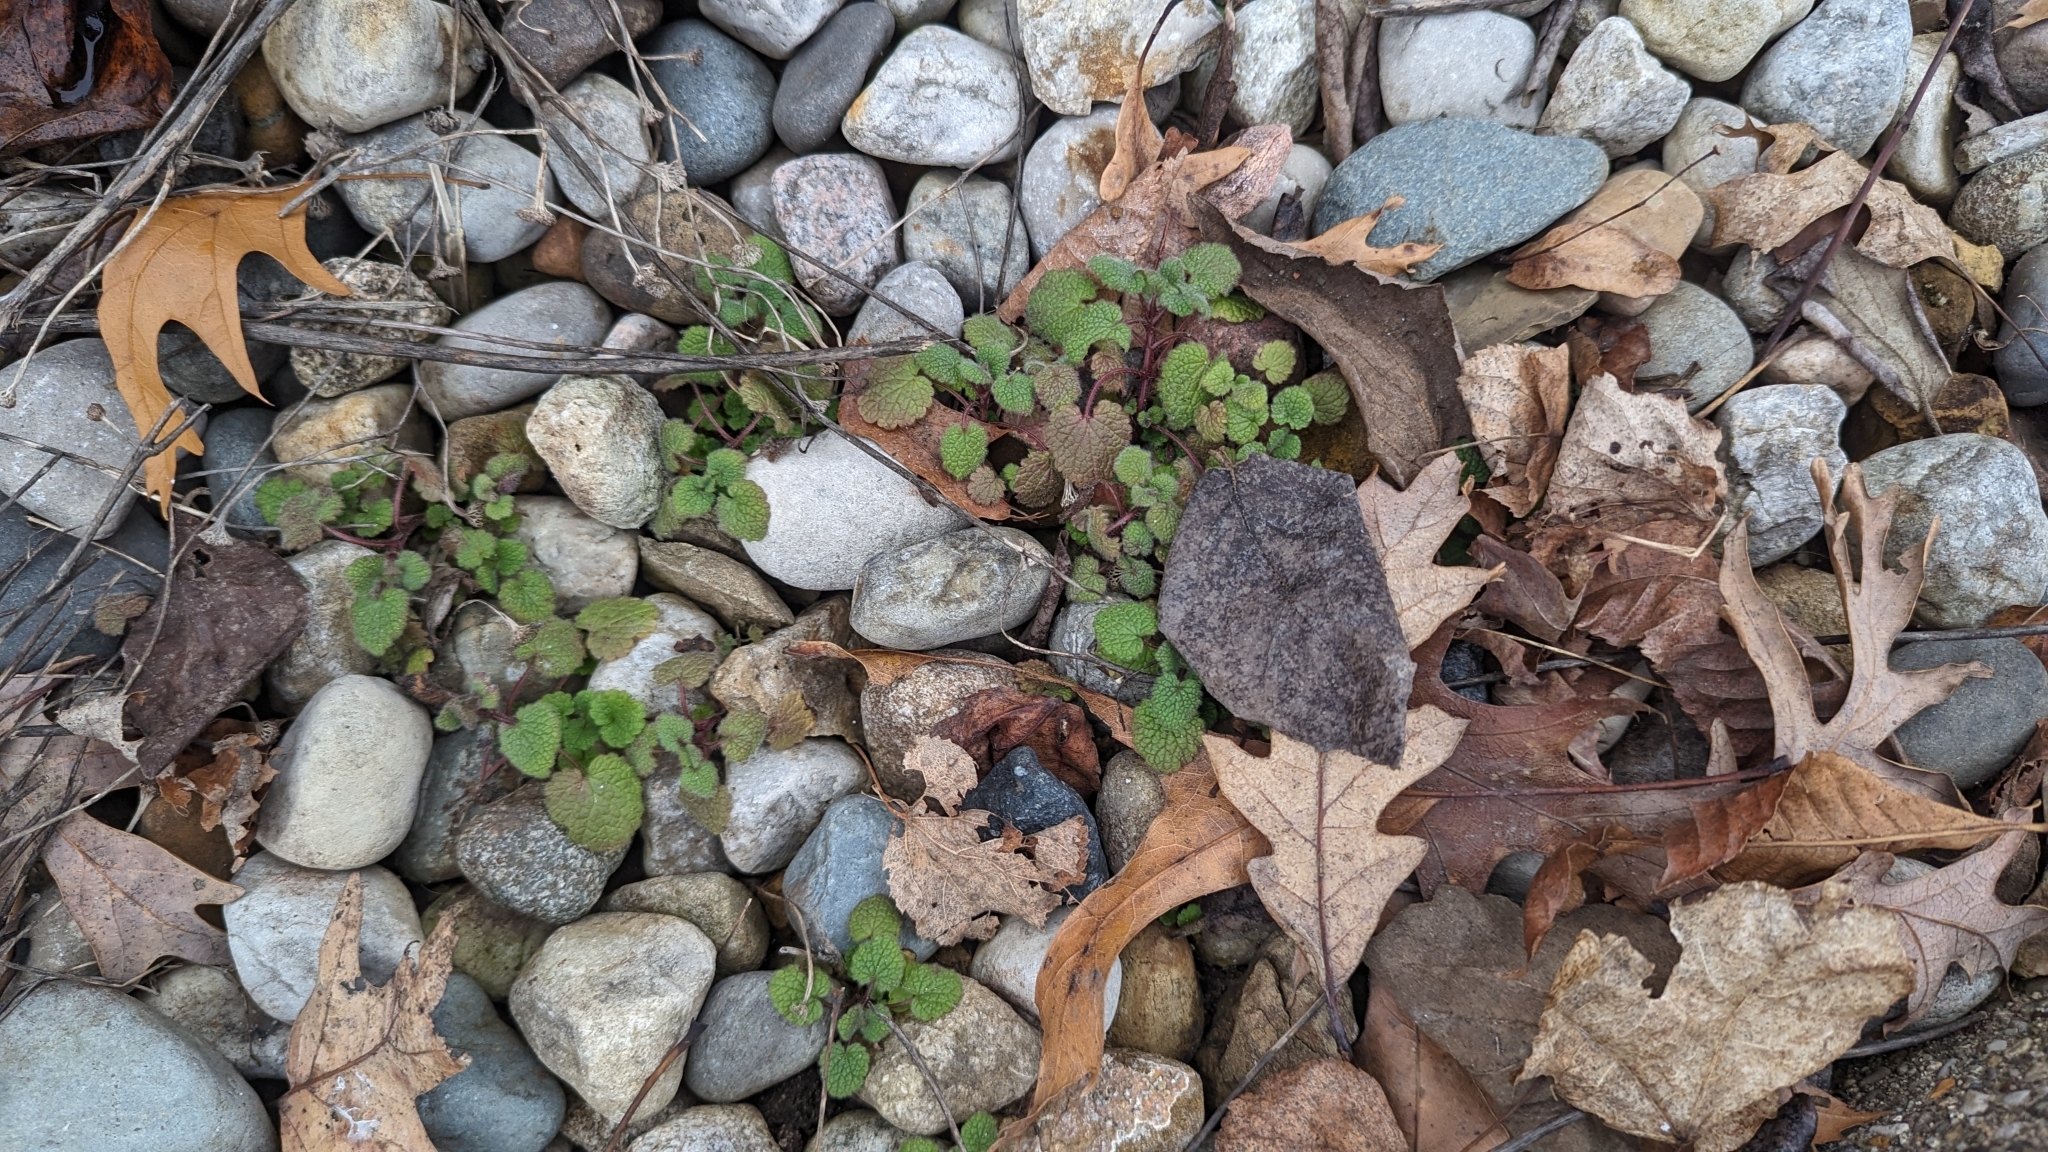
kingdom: Plantae
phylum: Tracheophyta
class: Magnoliopsida
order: Lamiales
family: Lamiaceae
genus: Lamium
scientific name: Lamium purpureum
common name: Red dead-nettle
